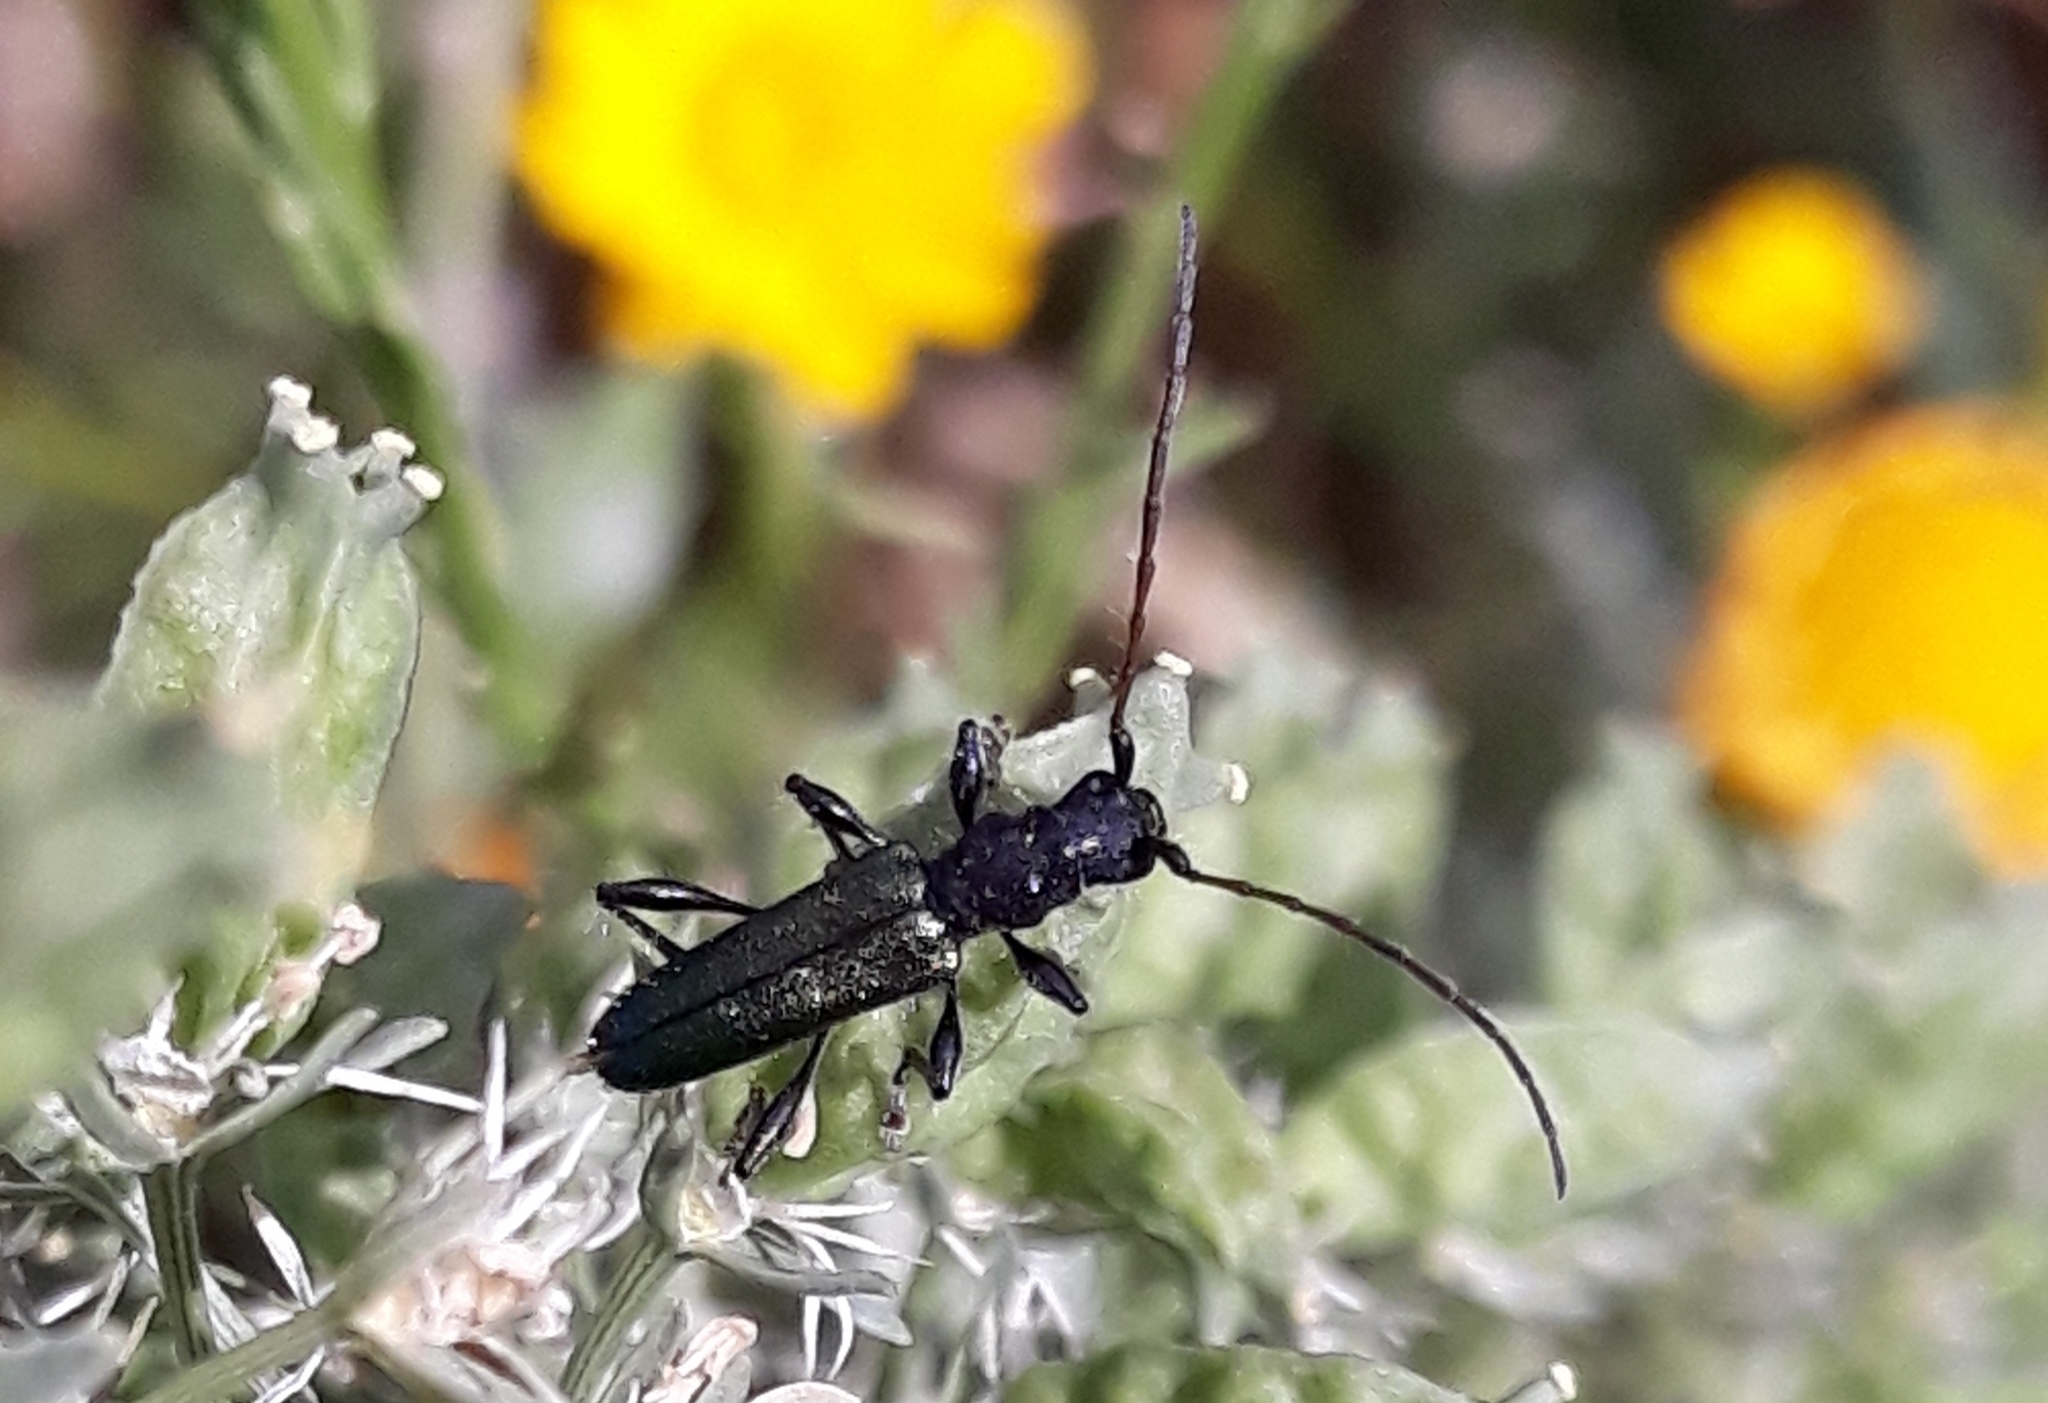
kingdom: Animalia
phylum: Arthropoda
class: Insecta
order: Coleoptera
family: Cerambycidae
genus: Certallum
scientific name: Certallum ebulinum
